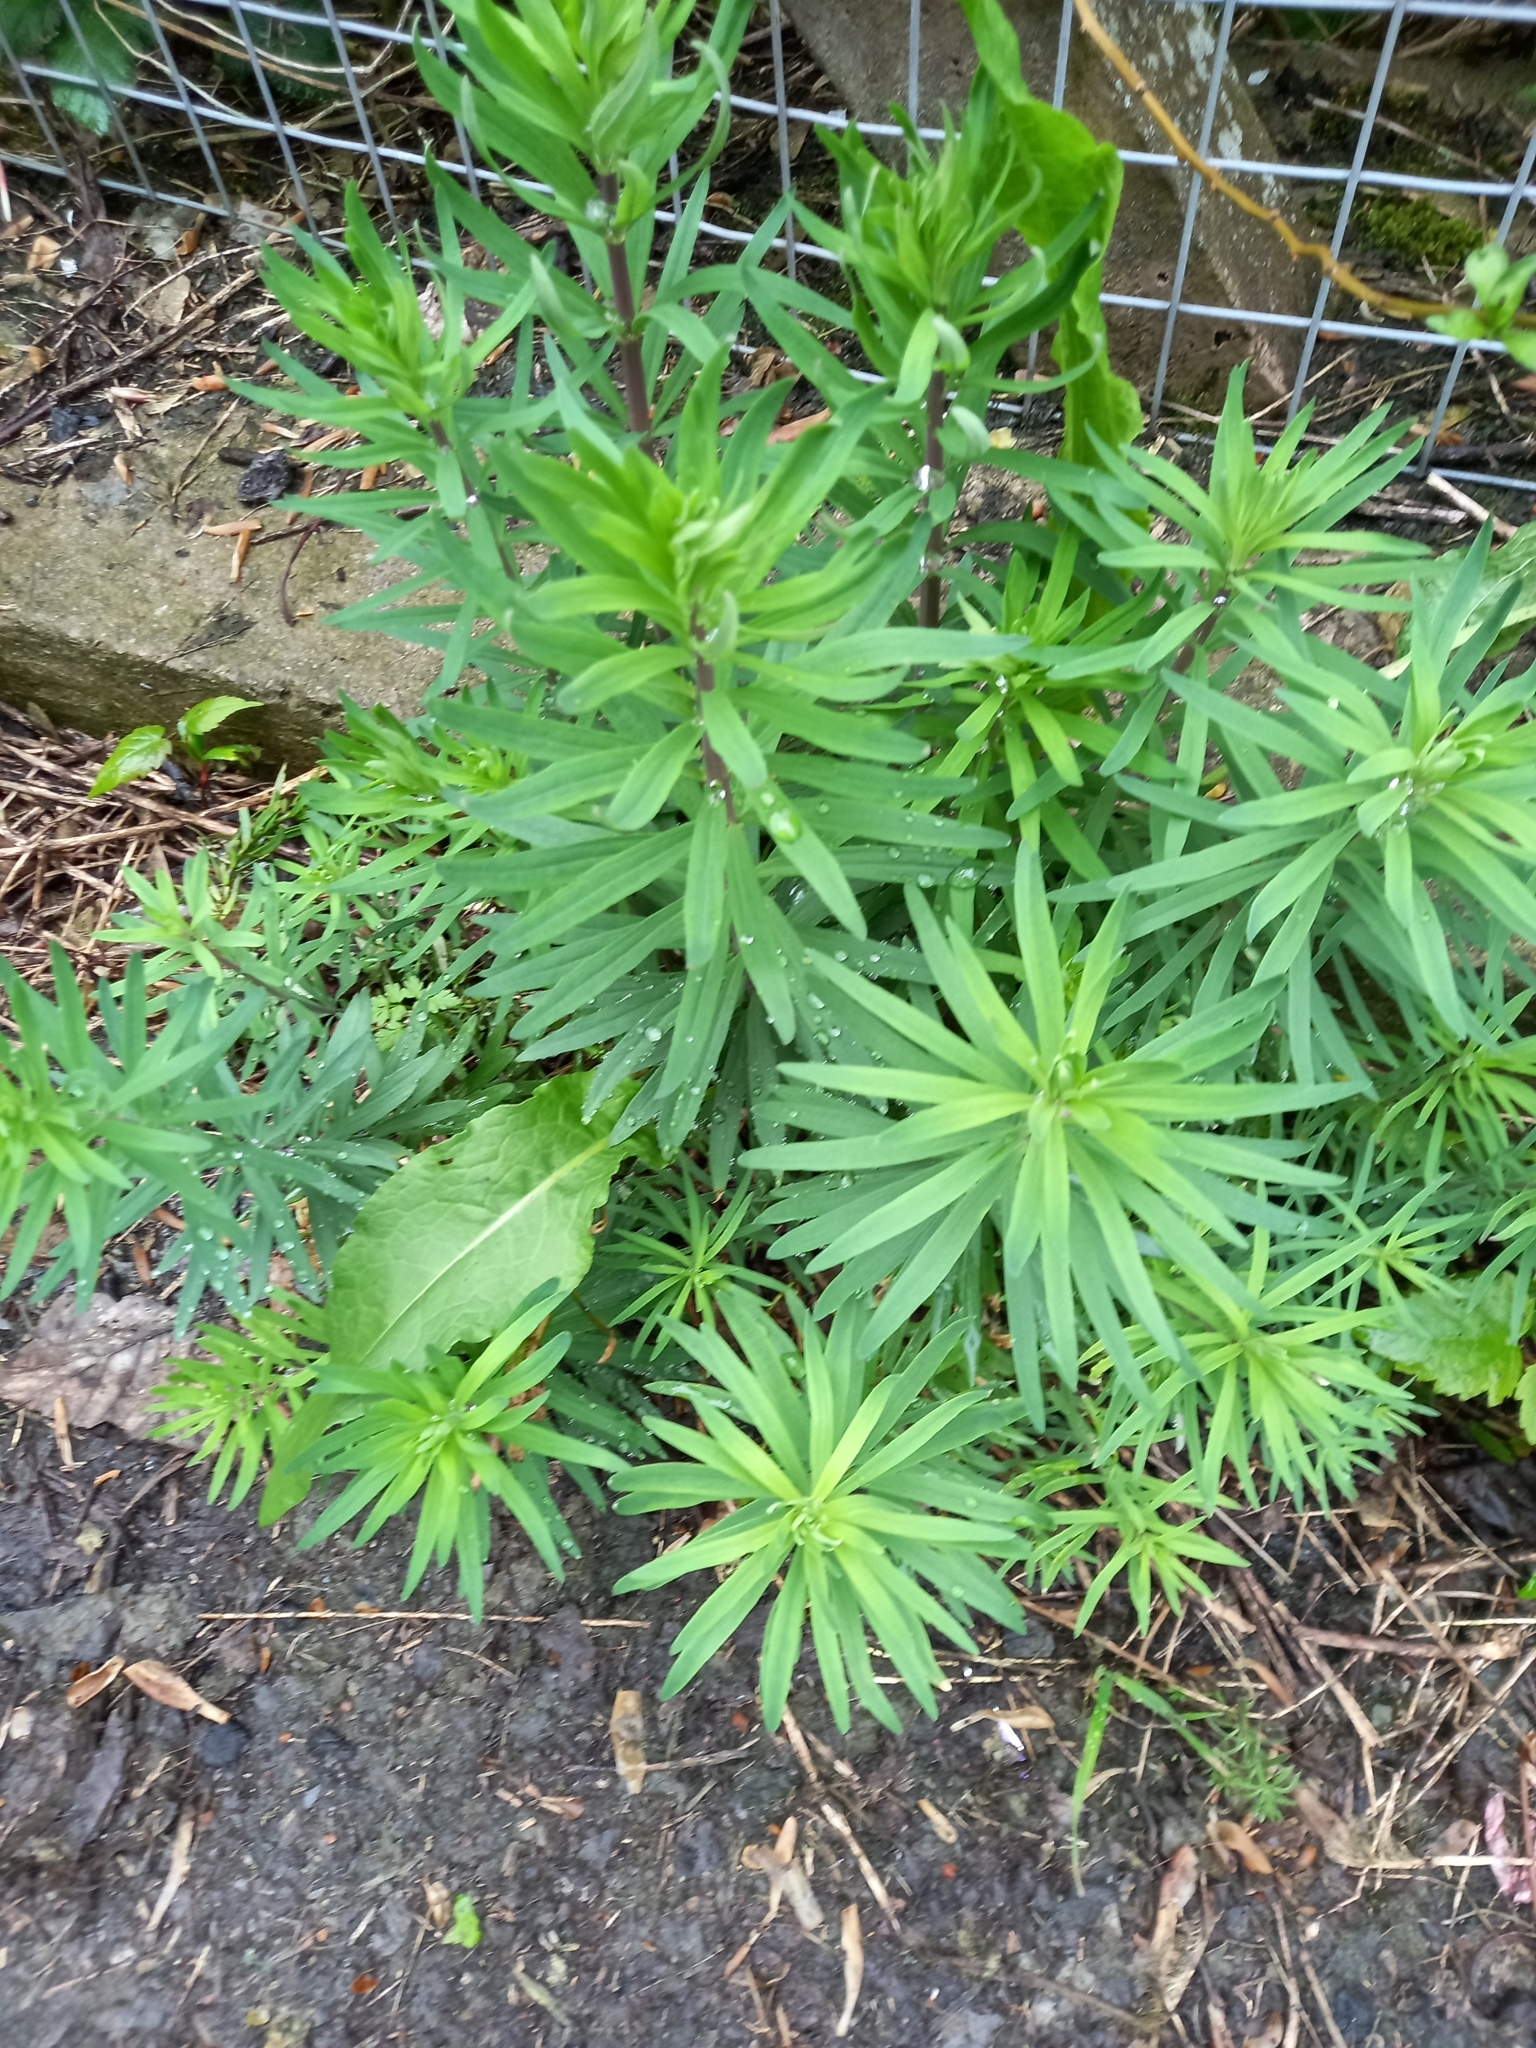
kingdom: Plantae
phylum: Tracheophyta
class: Magnoliopsida
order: Lamiales
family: Plantaginaceae
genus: Linaria
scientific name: Linaria purpurea
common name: Purple toadflax
